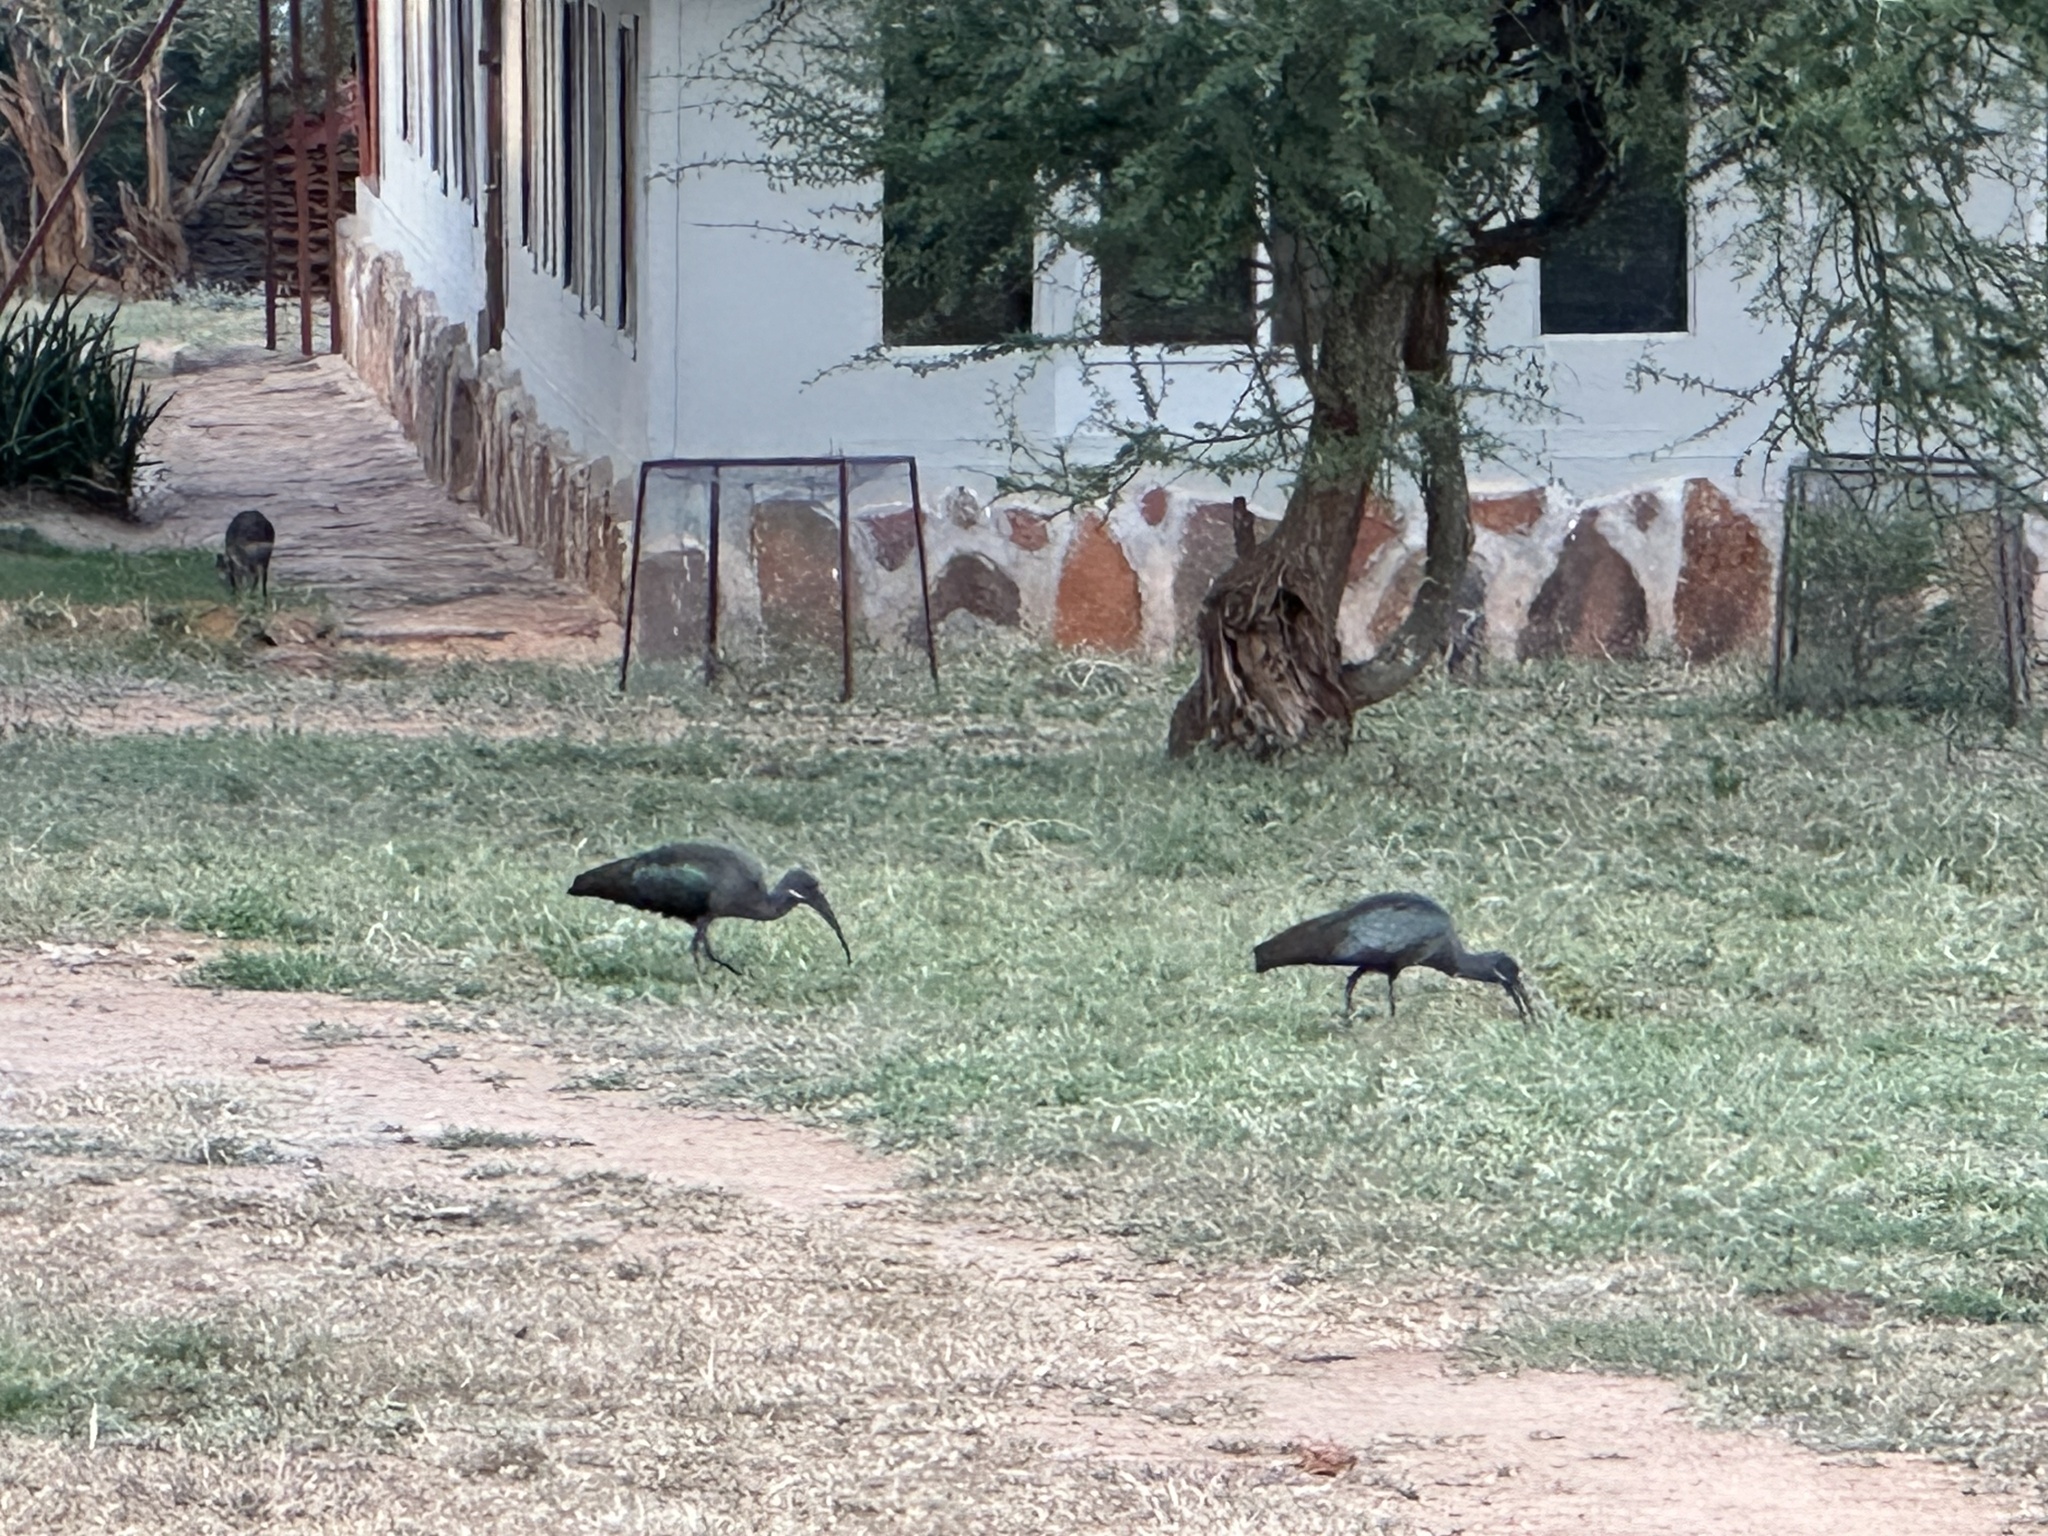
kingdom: Animalia
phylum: Chordata
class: Aves
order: Pelecaniformes
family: Threskiornithidae
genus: Bostrychia
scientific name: Bostrychia hagedash
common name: Hadada ibis
